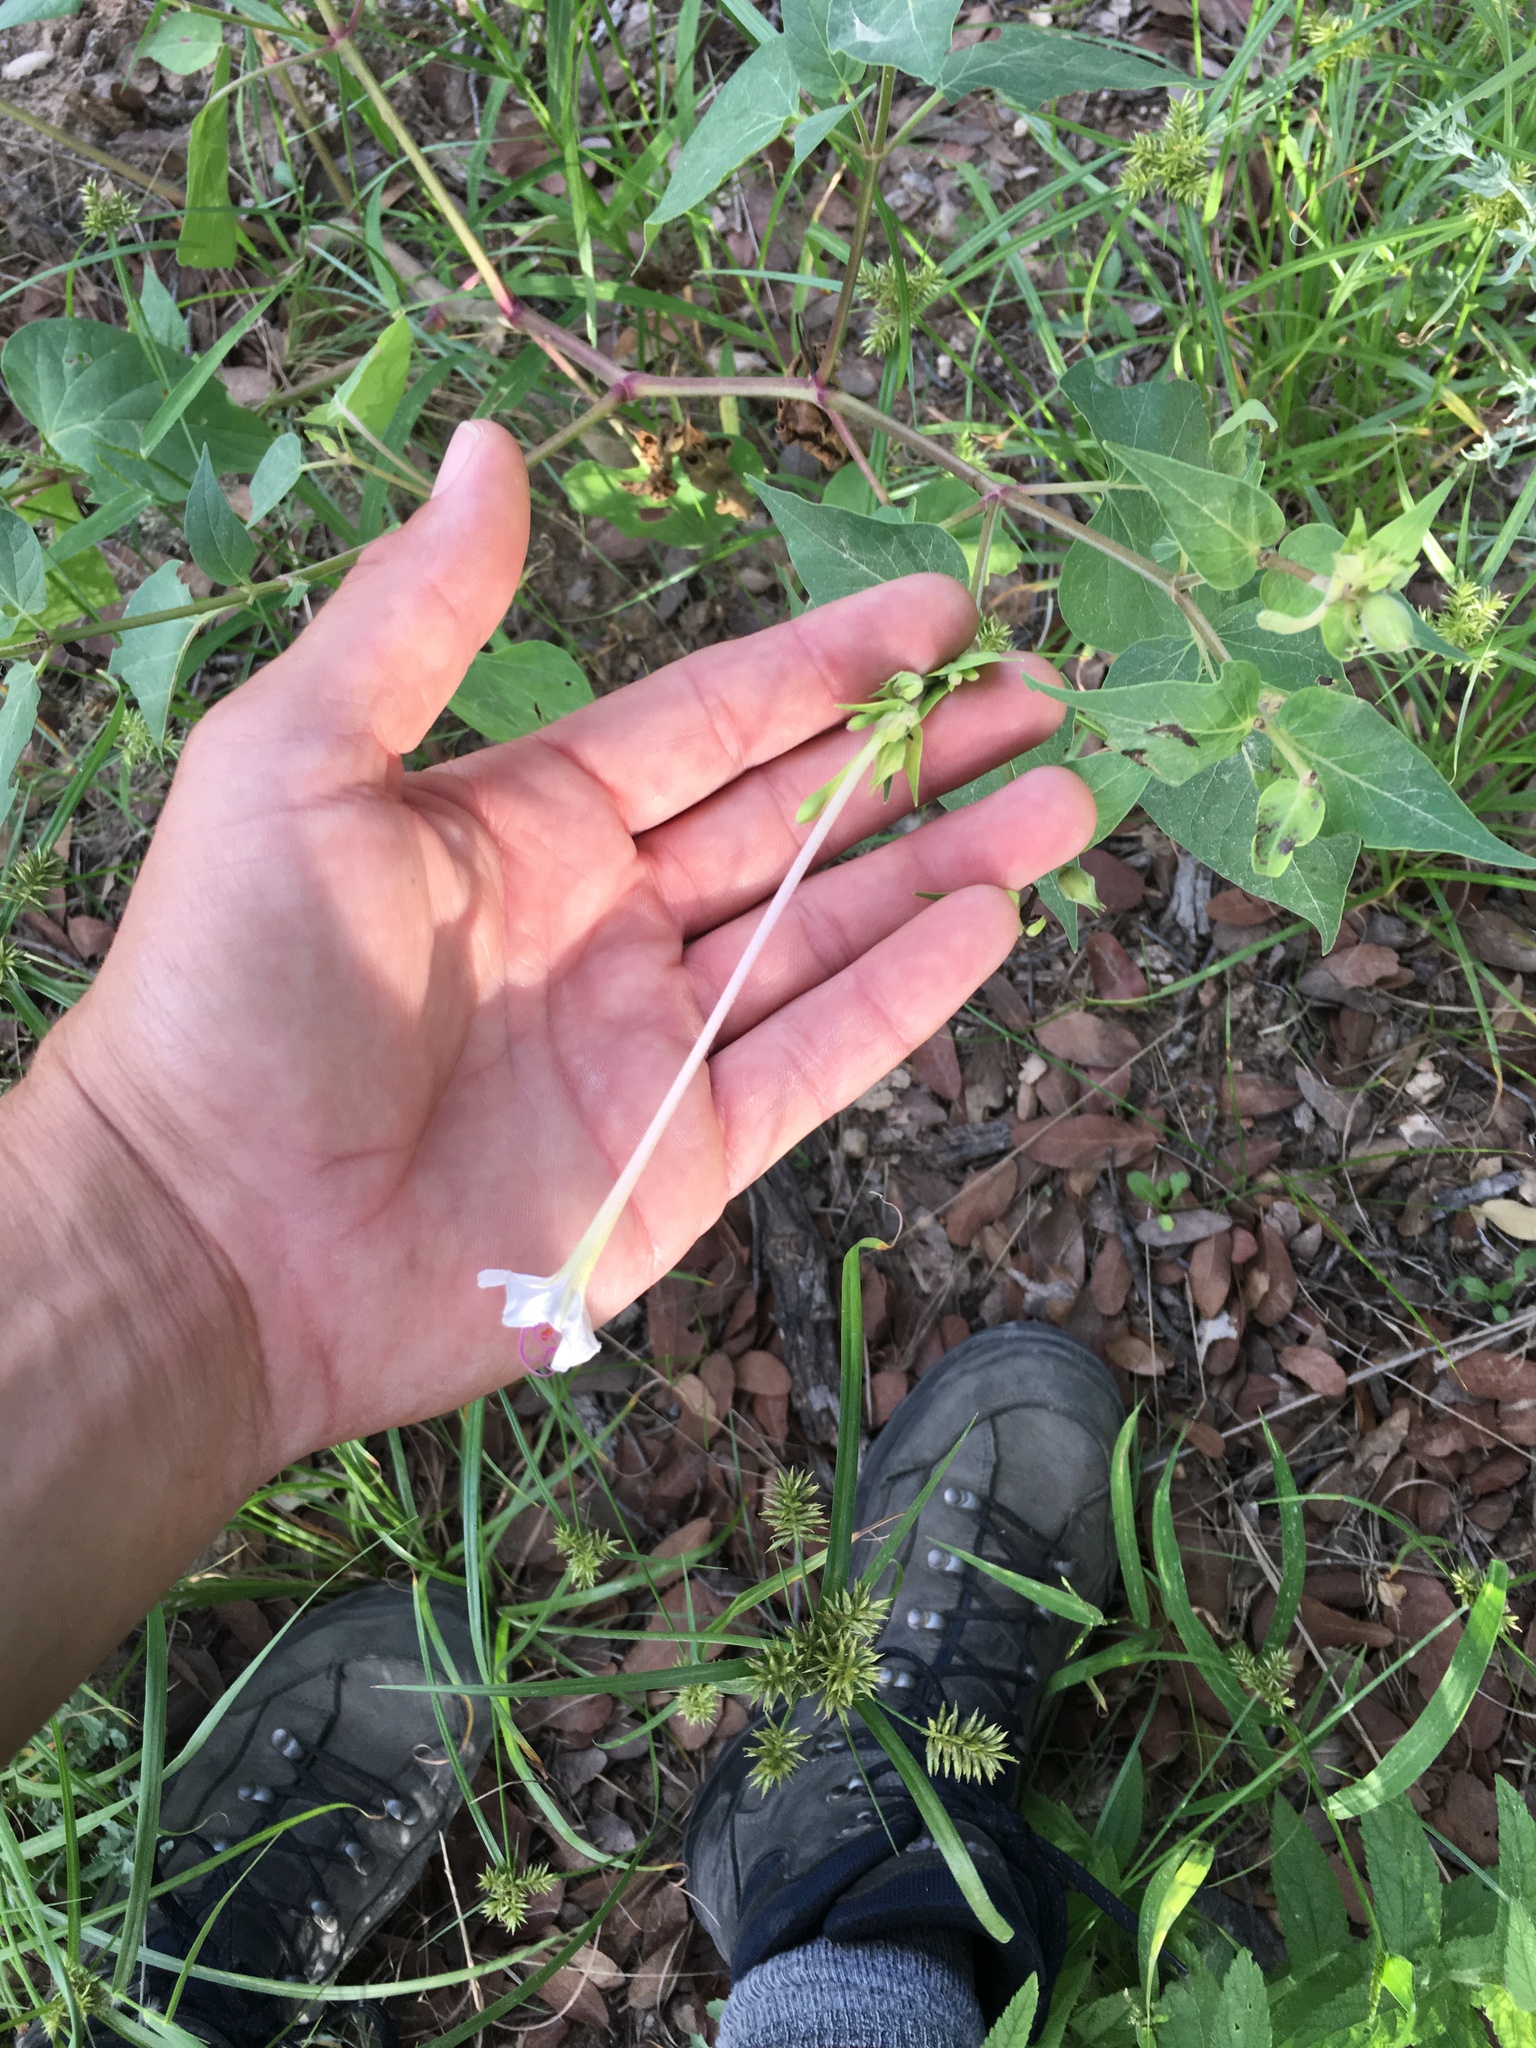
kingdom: Plantae
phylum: Tracheophyta
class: Magnoliopsida
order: Caryophyllales
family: Nyctaginaceae
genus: Mirabilis
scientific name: Mirabilis longiflora
